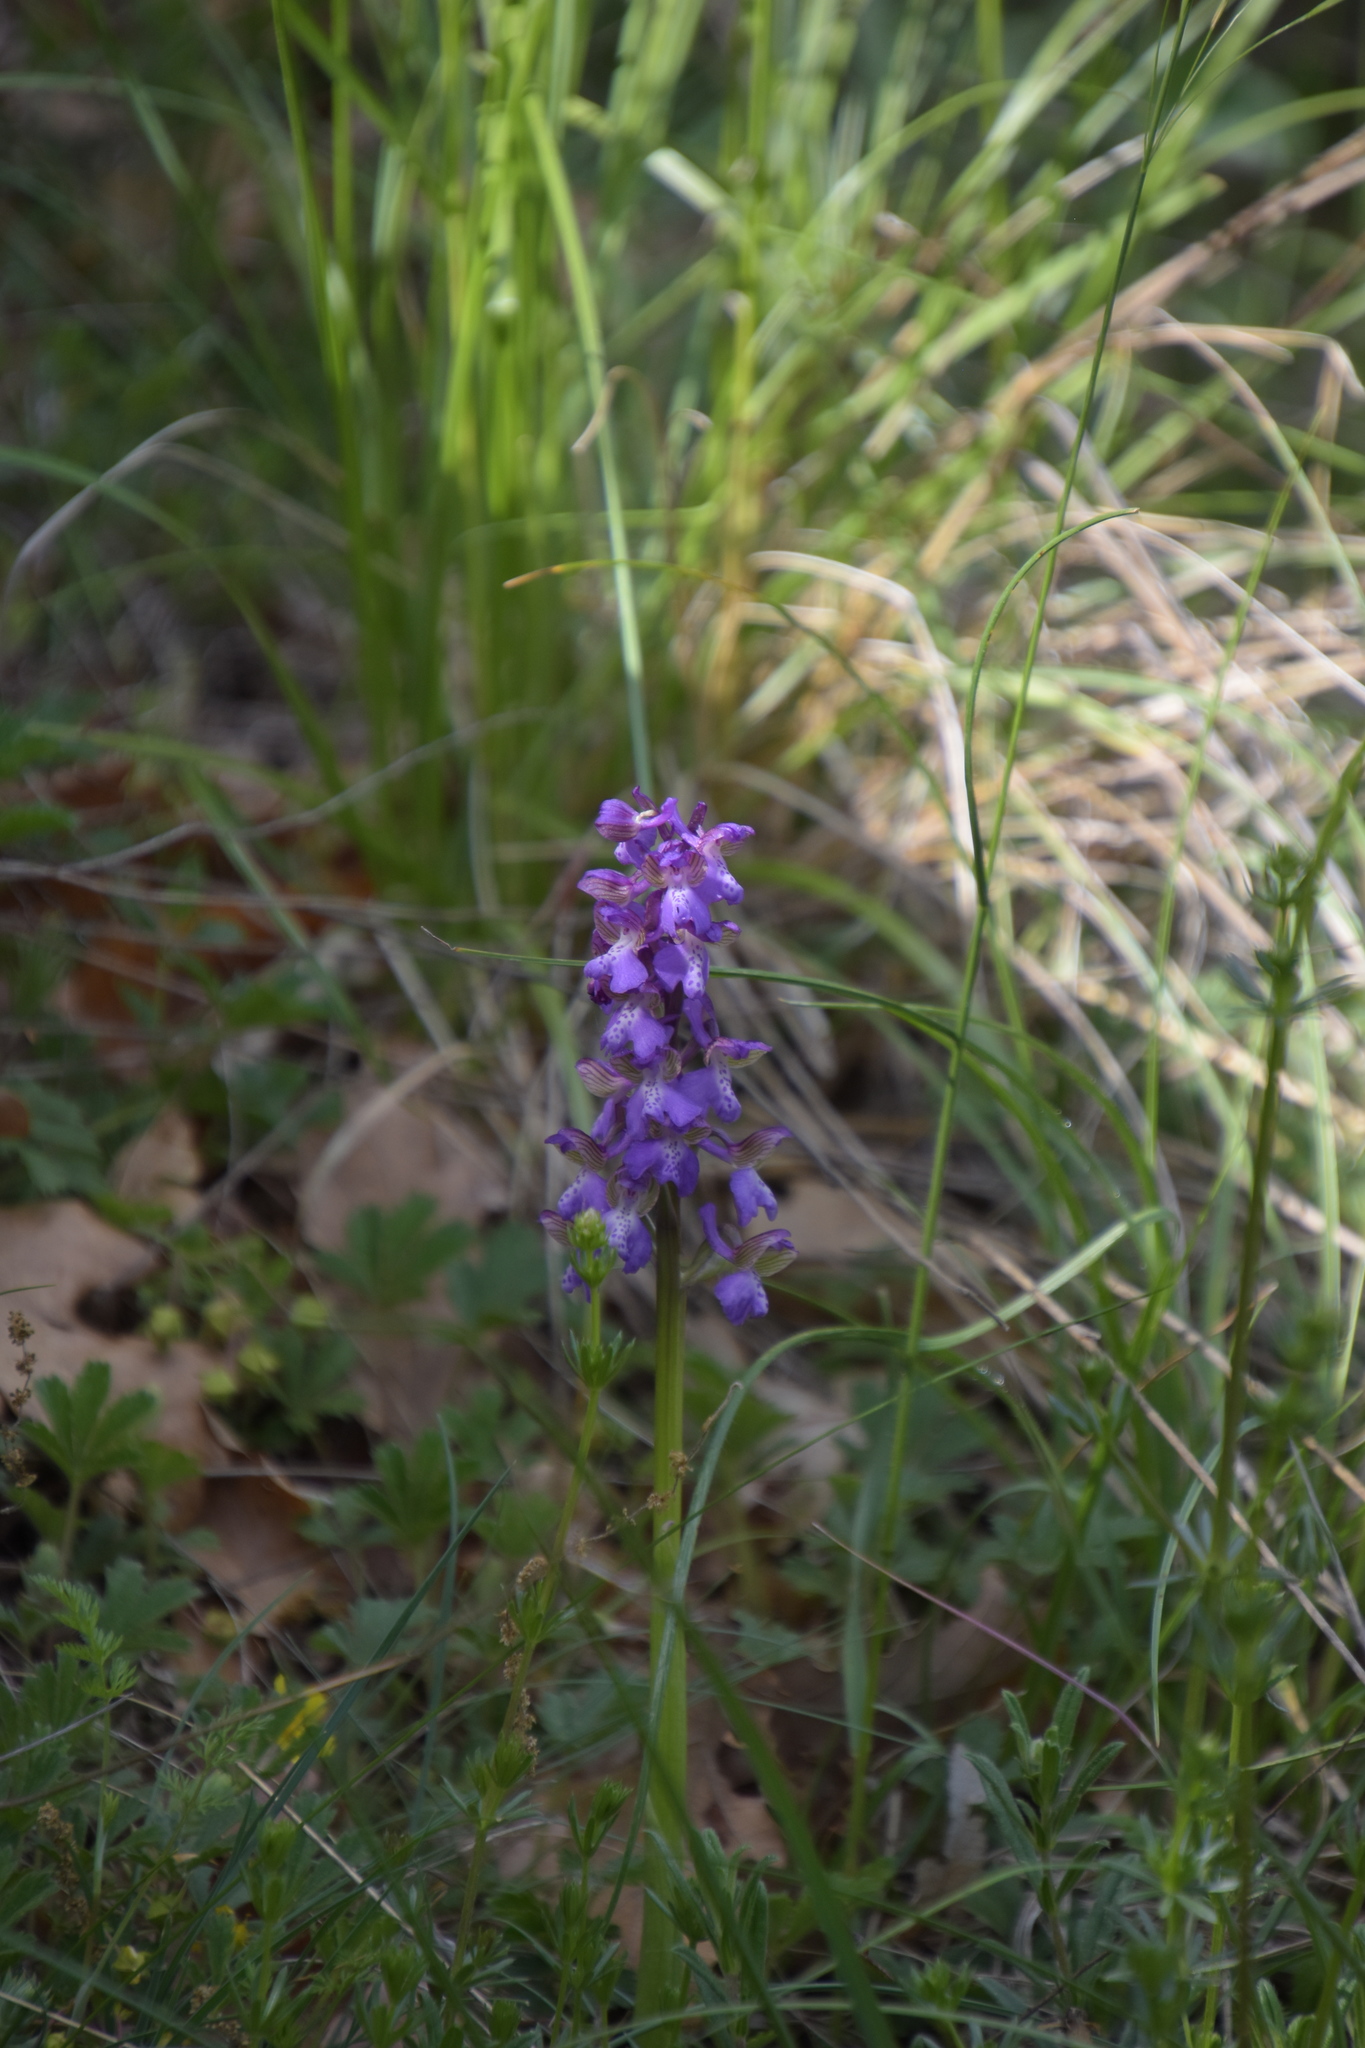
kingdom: Plantae
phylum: Tracheophyta
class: Liliopsida
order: Asparagales
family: Orchidaceae
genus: Anacamptis
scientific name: Anacamptis morio
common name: Green-winged orchid
